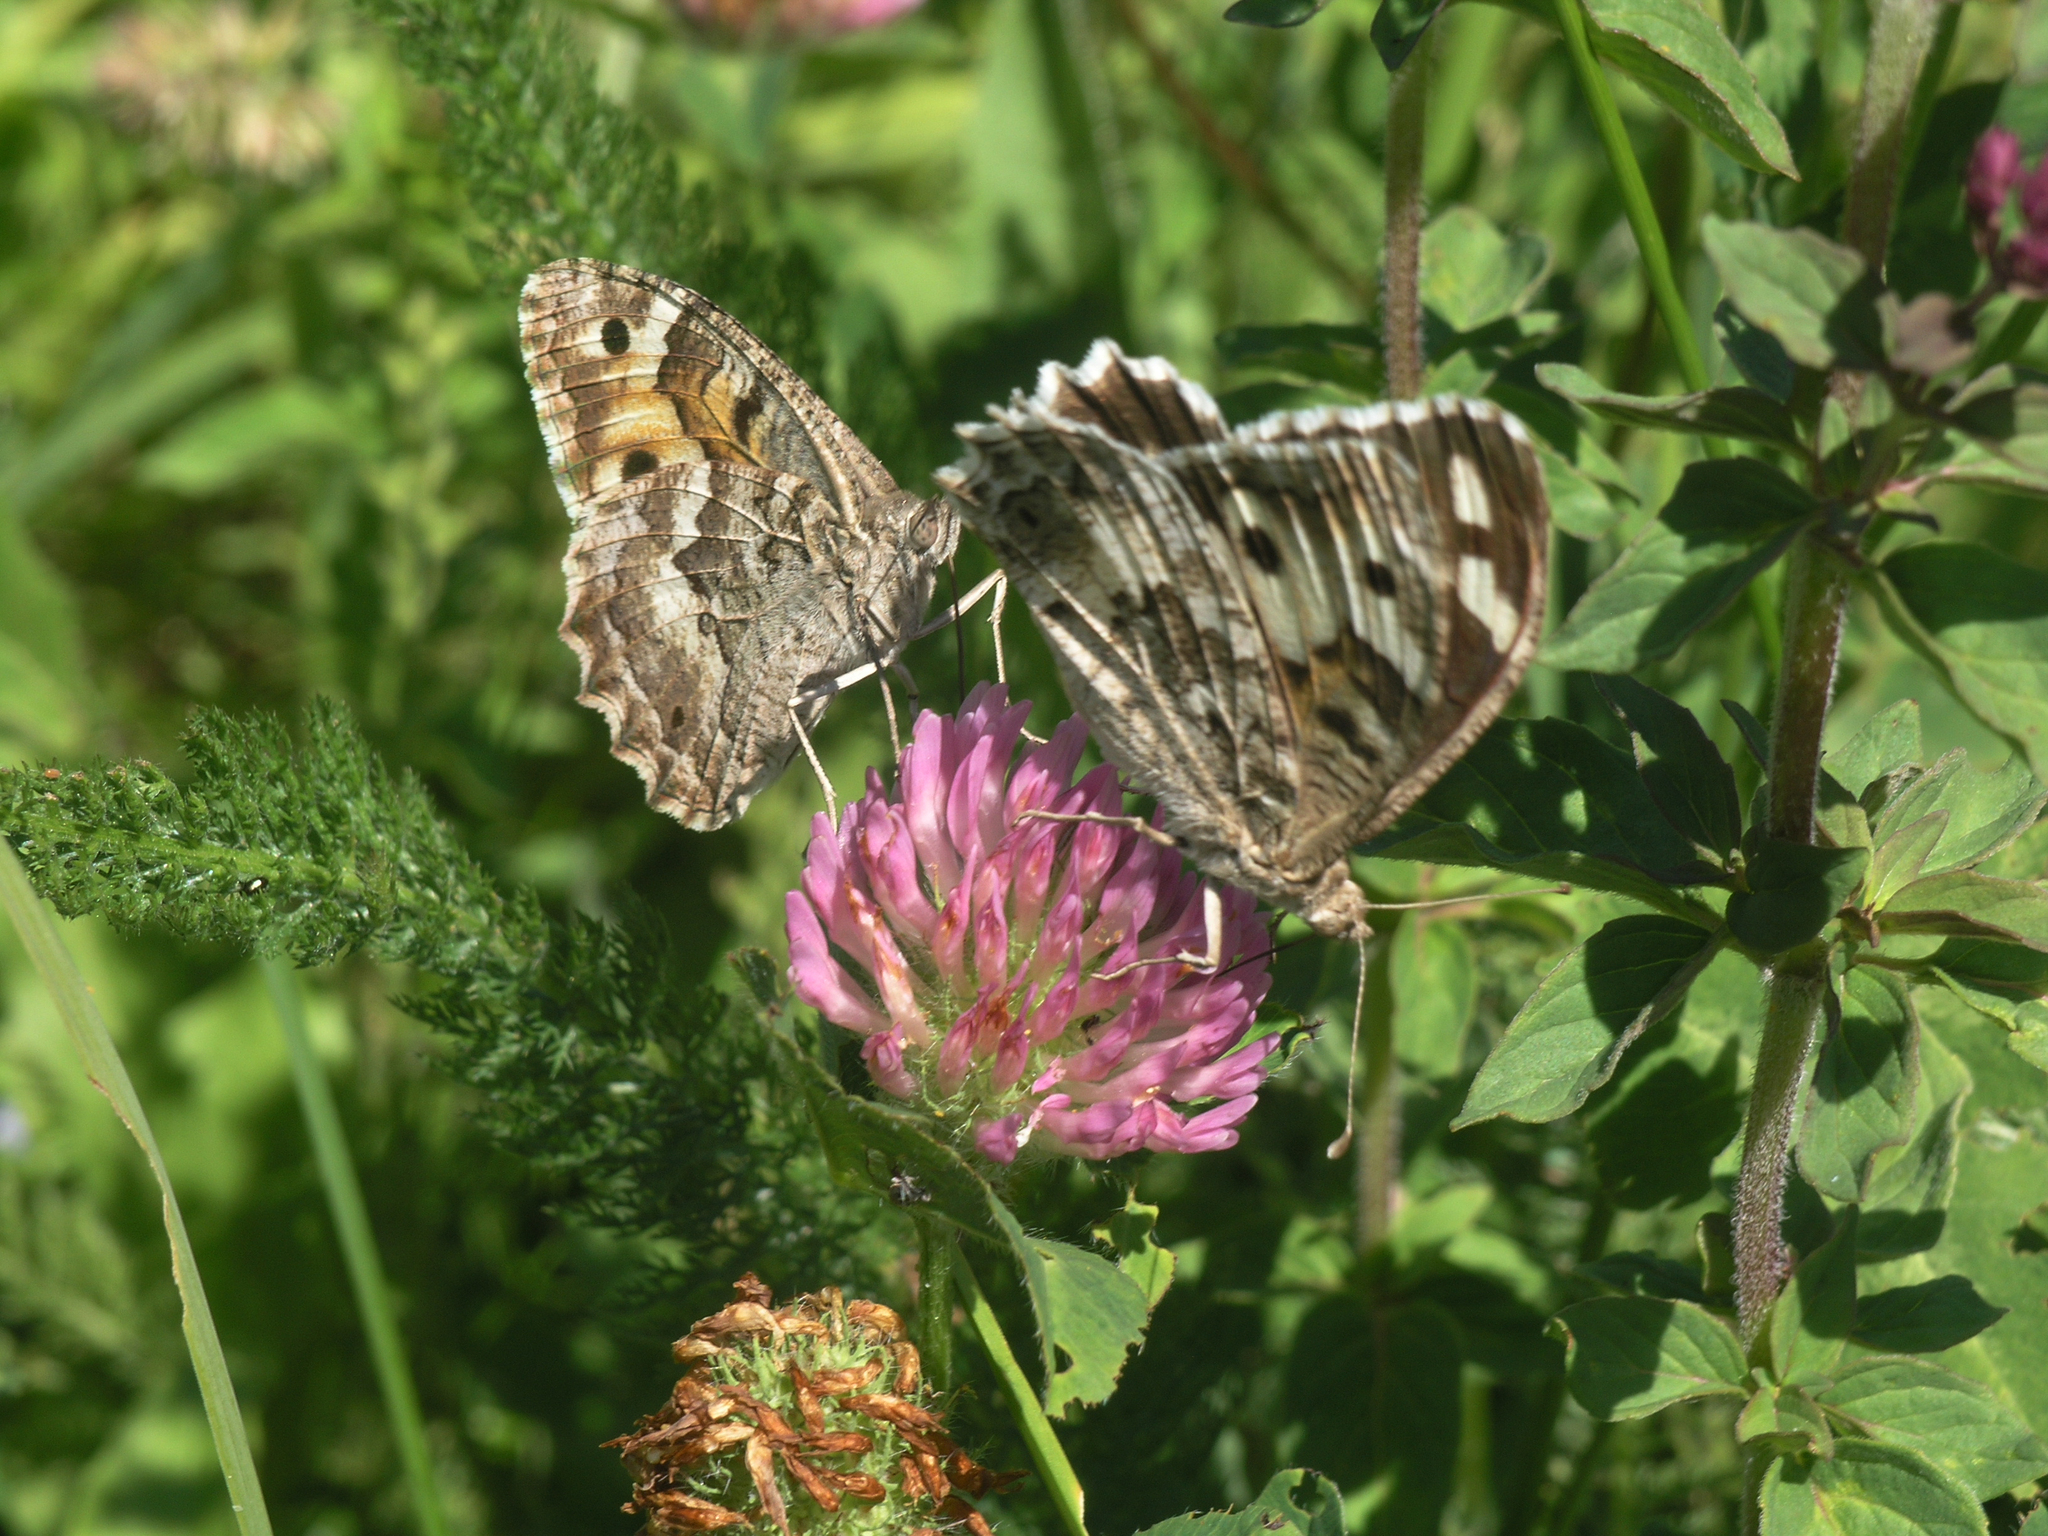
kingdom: Animalia
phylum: Arthropoda
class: Insecta
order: Lepidoptera
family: Nymphalidae
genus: Satyrus
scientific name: Satyrus Chazara enervata
